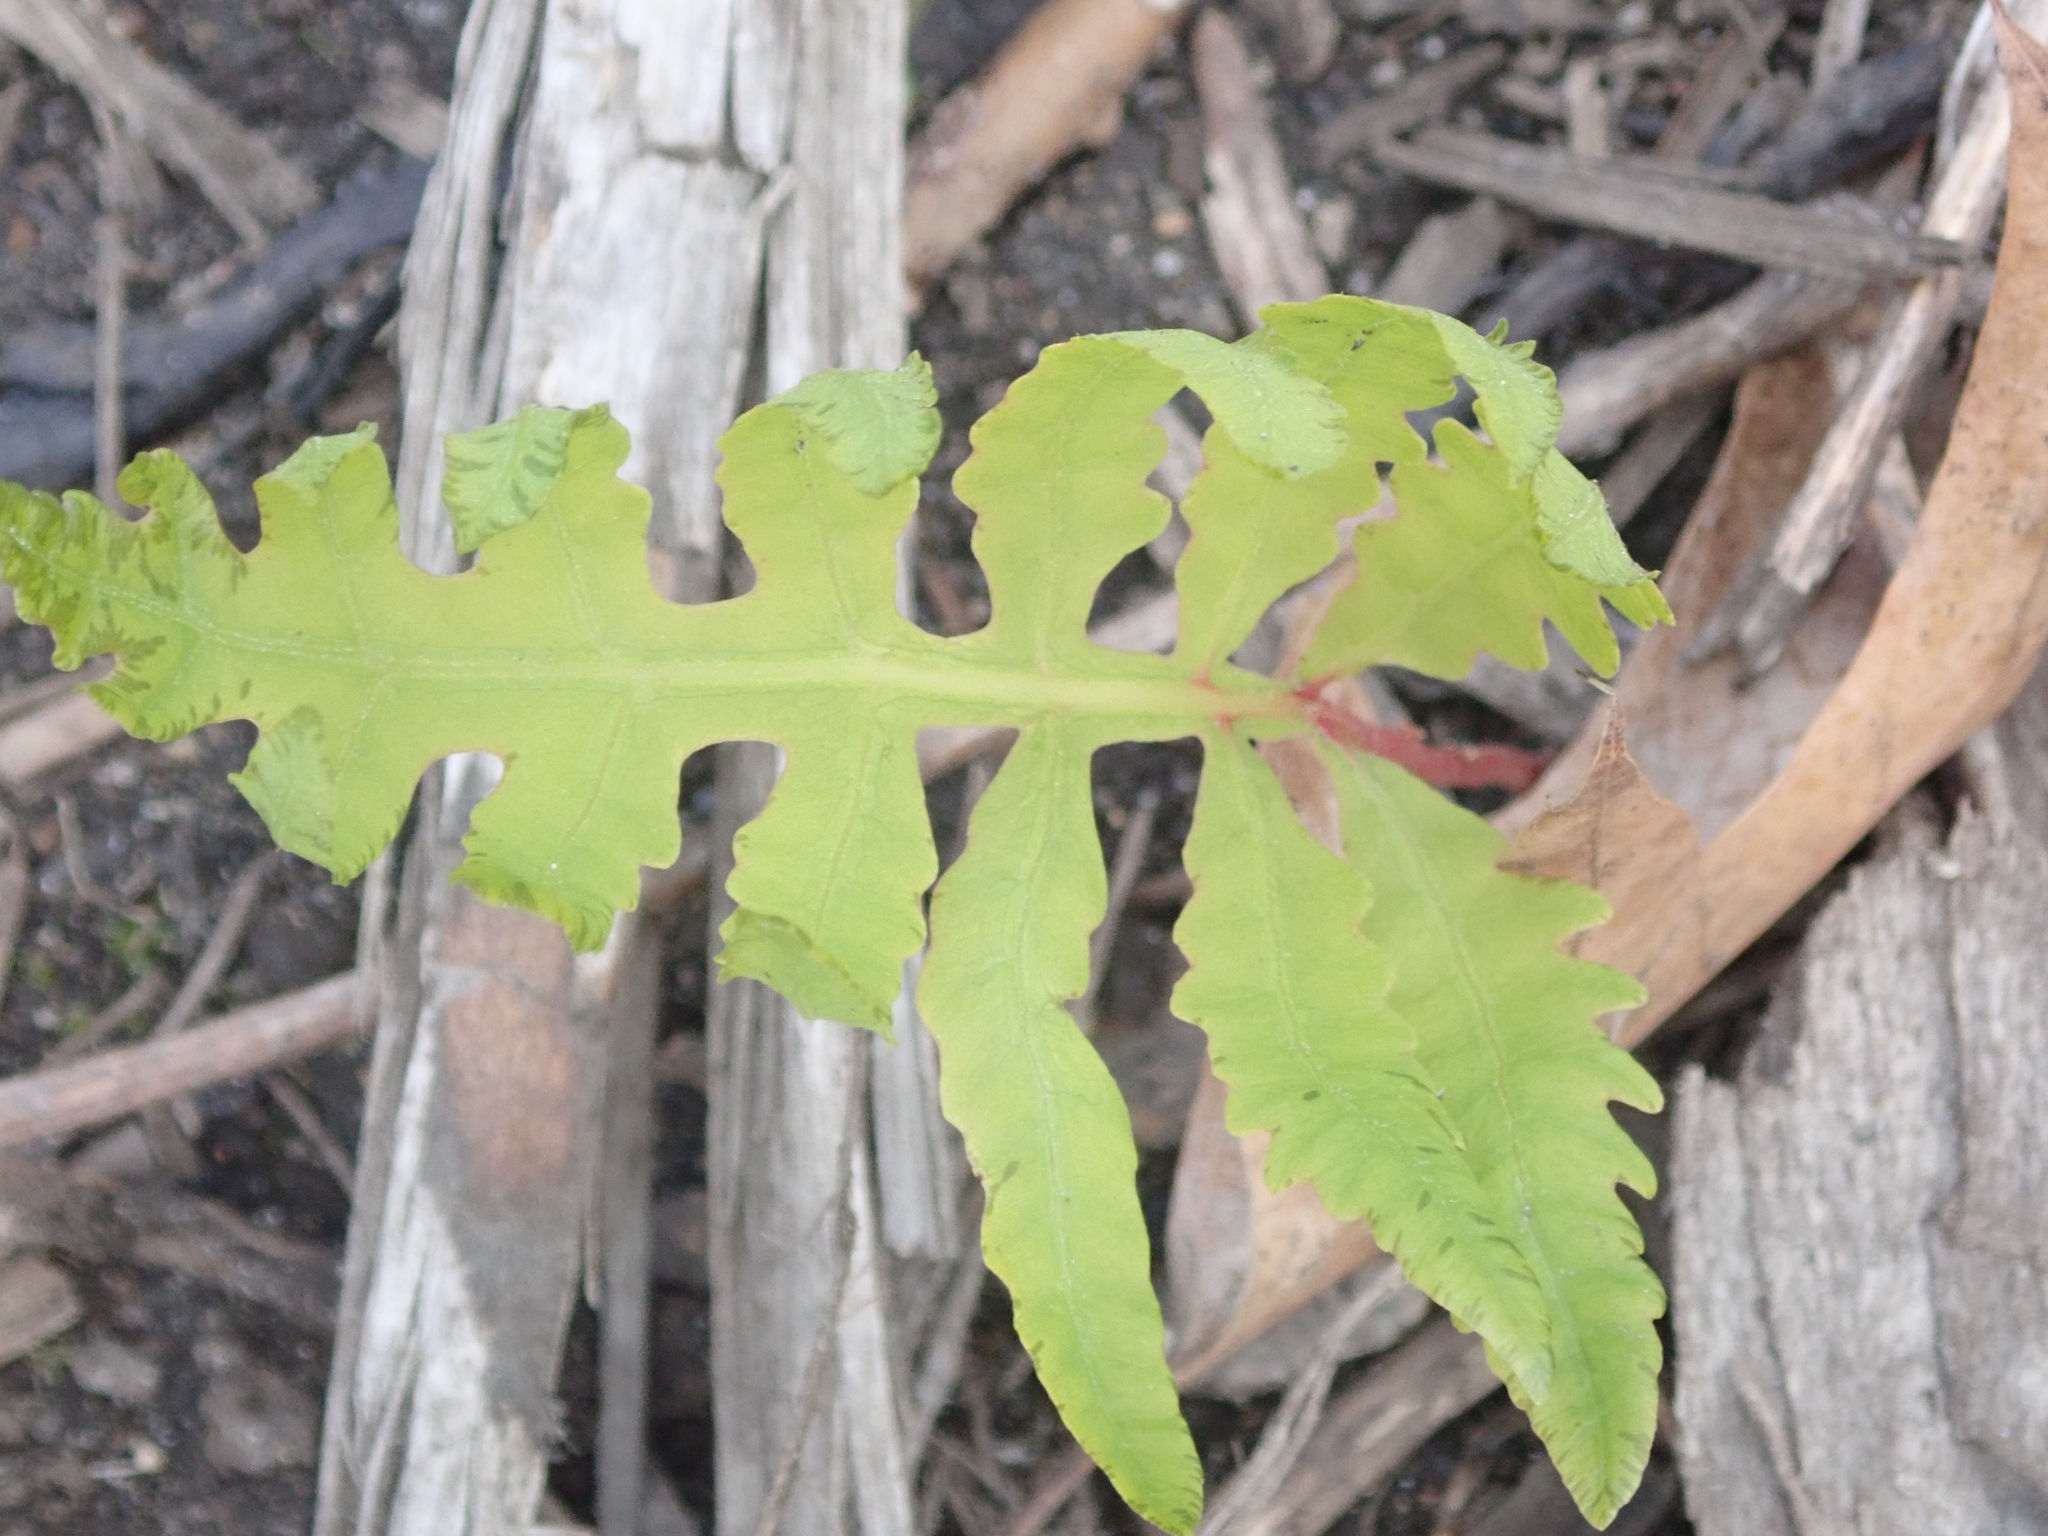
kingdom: Plantae
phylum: Tracheophyta
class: Polypodiopsida
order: Polypodiales
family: Onocleaceae
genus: Onoclea
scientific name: Onoclea sensibilis
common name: Sensitive fern
